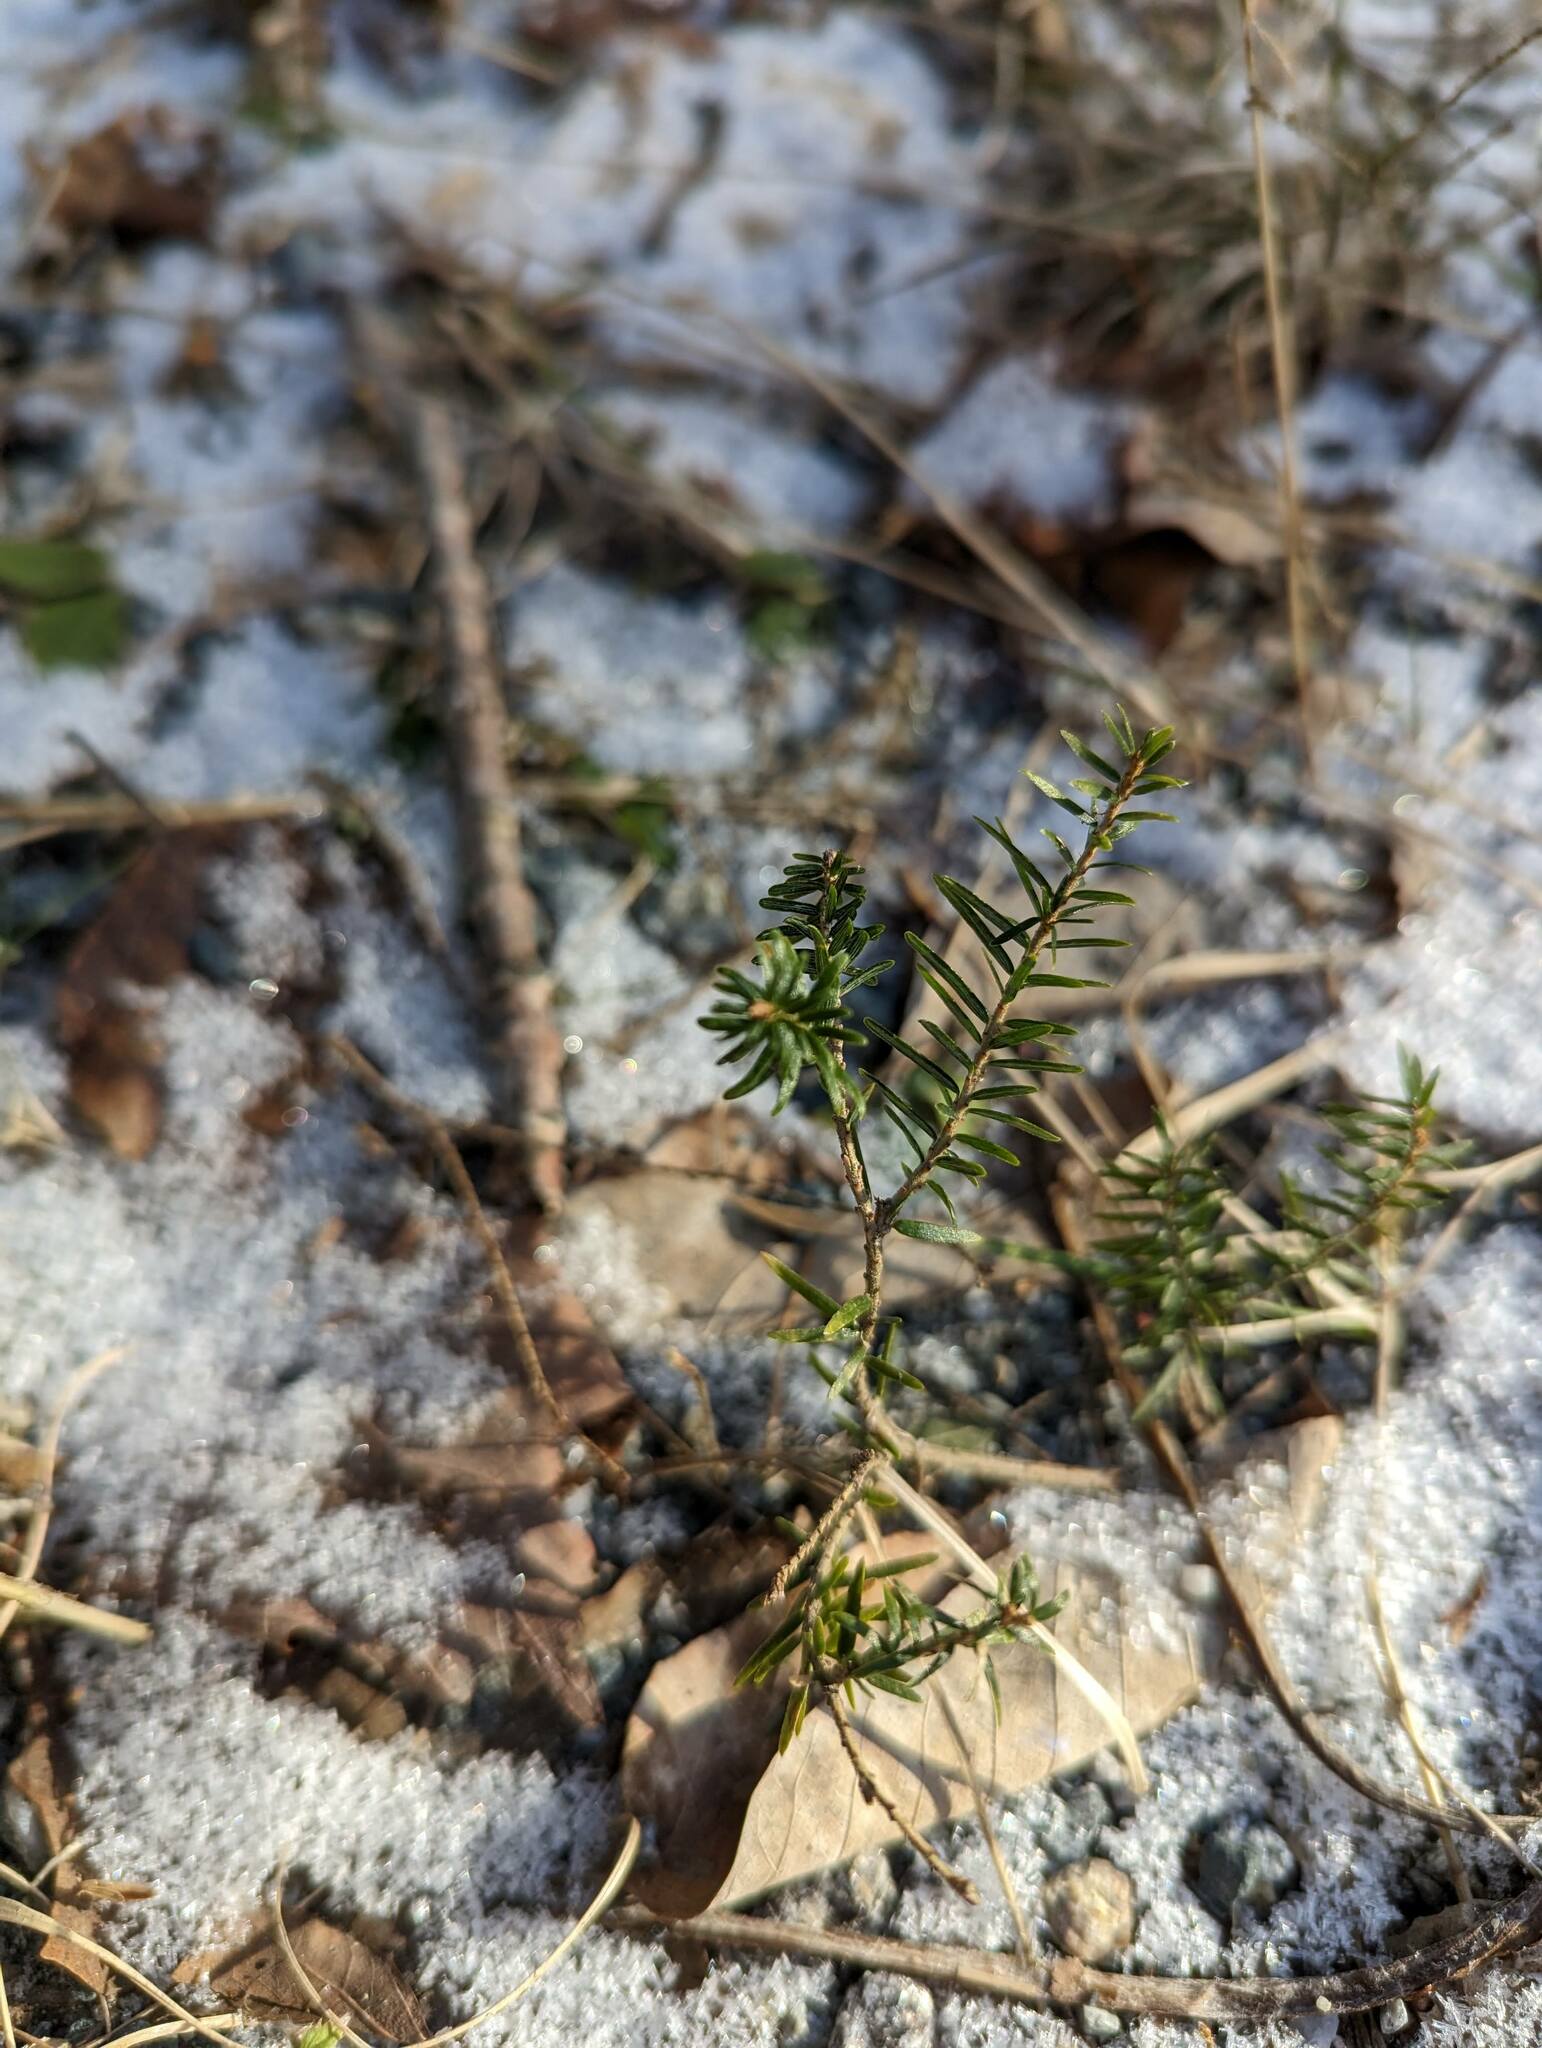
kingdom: Plantae
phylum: Tracheophyta
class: Pinopsida
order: Pinales
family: Pinaceae
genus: Tsuga
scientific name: Tsuga canadensis
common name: Eastern hemlock
